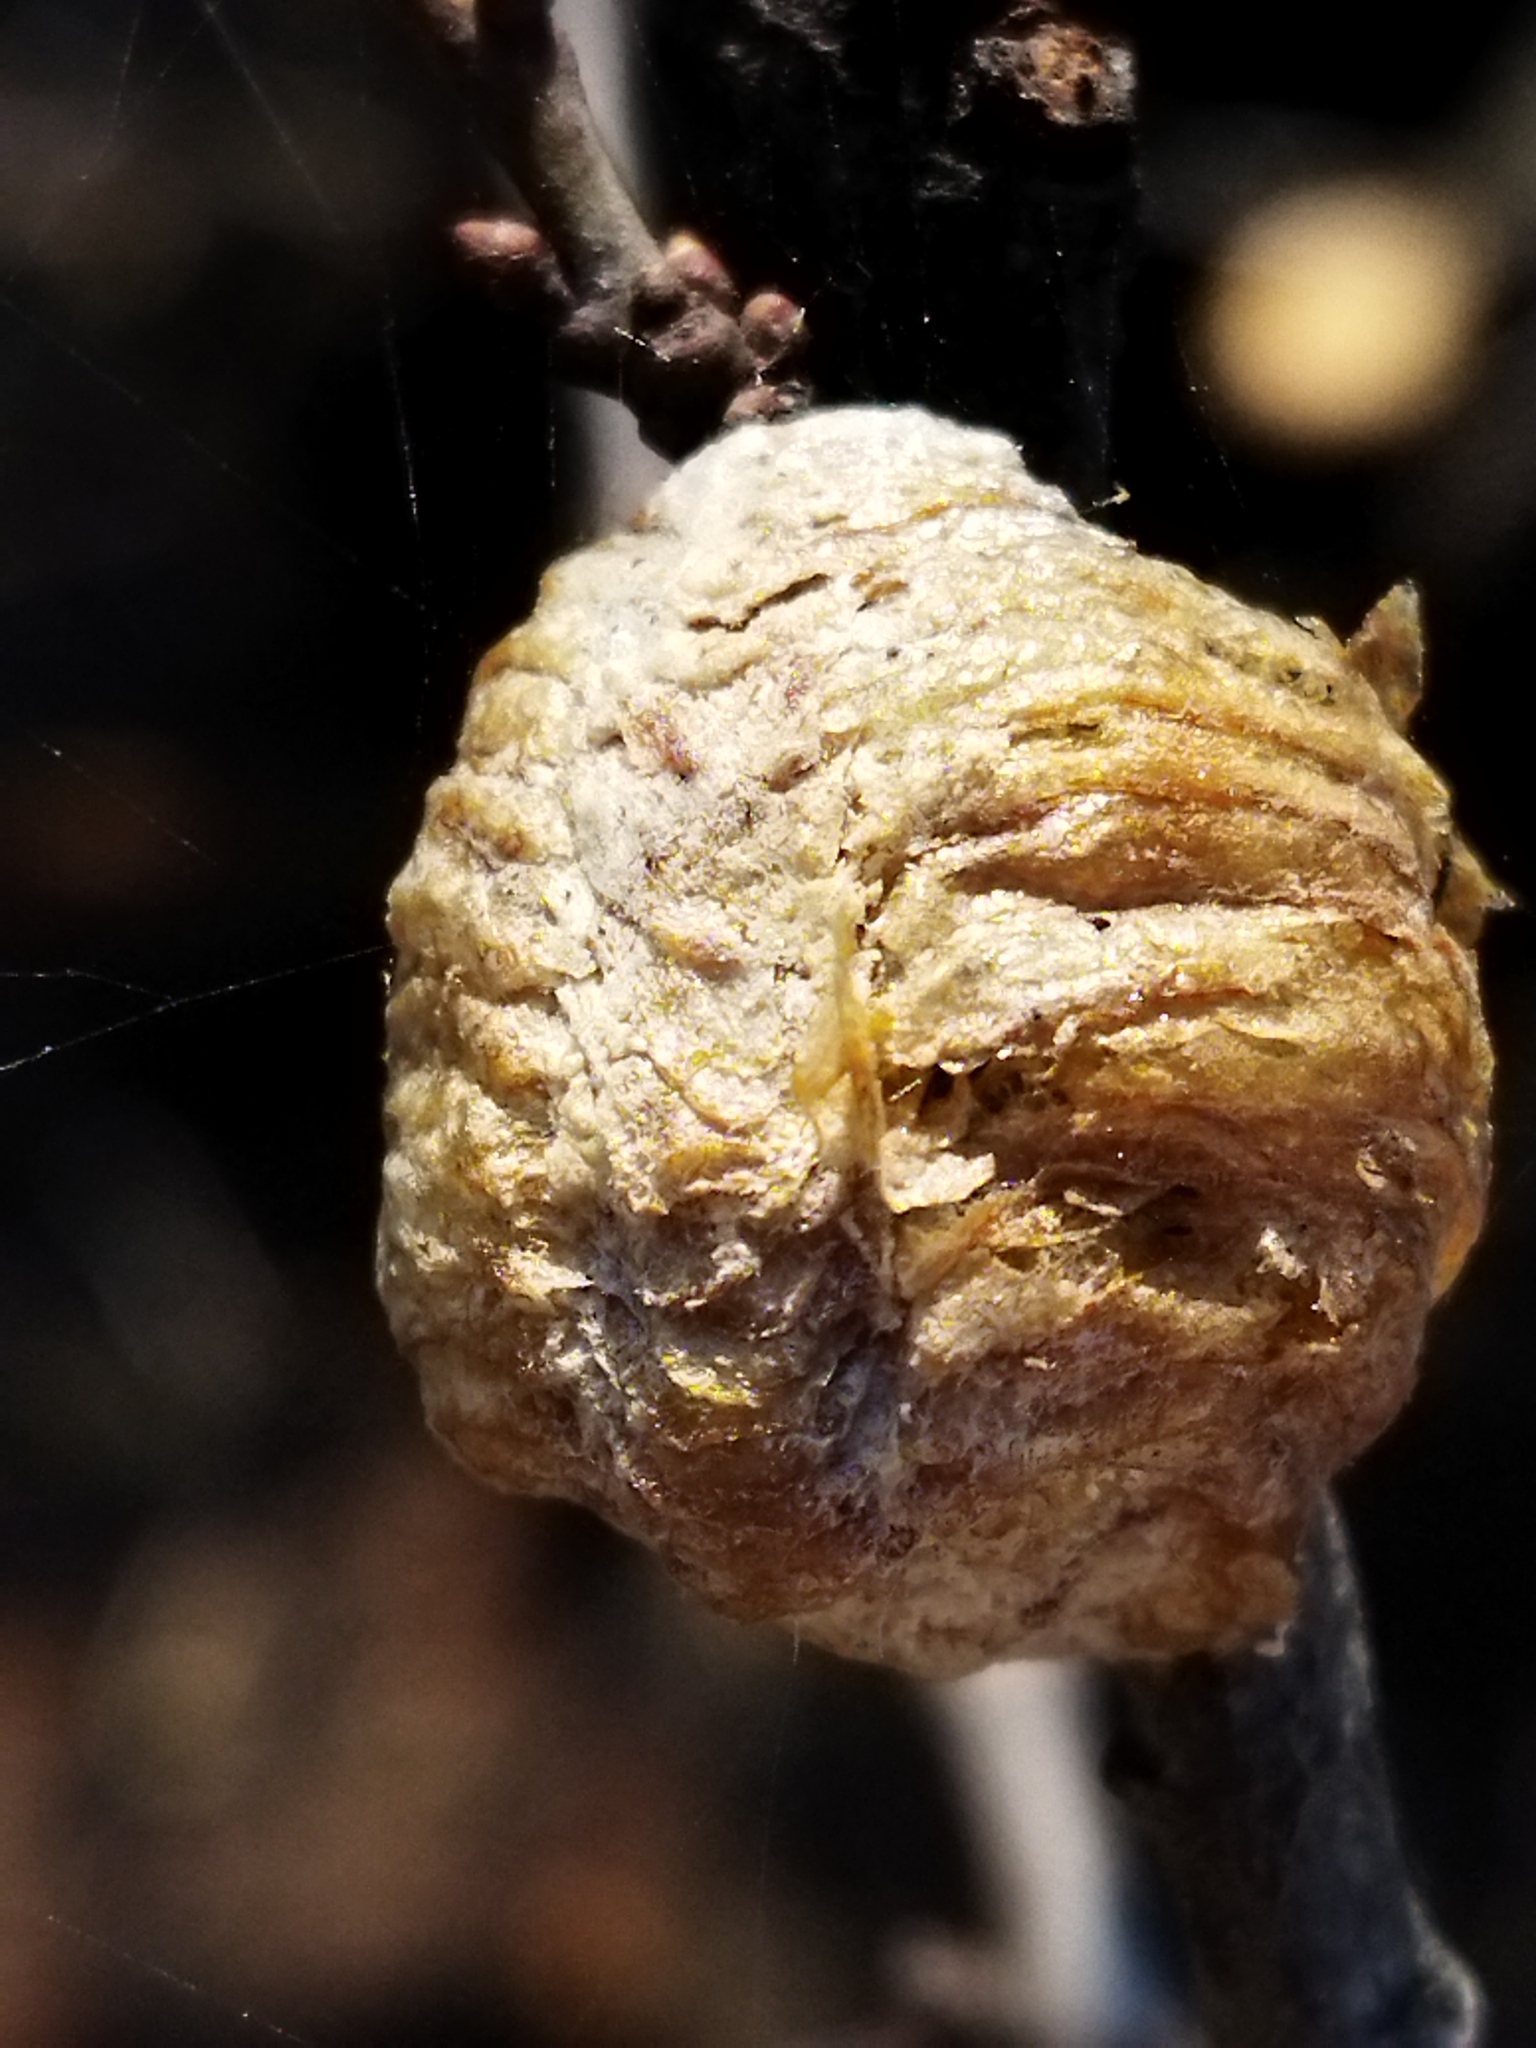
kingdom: Animalia
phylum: Arthropoda
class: Insecta
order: Mantodea
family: Mantidae
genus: Hierodula
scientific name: Hierodula transcaucasica
